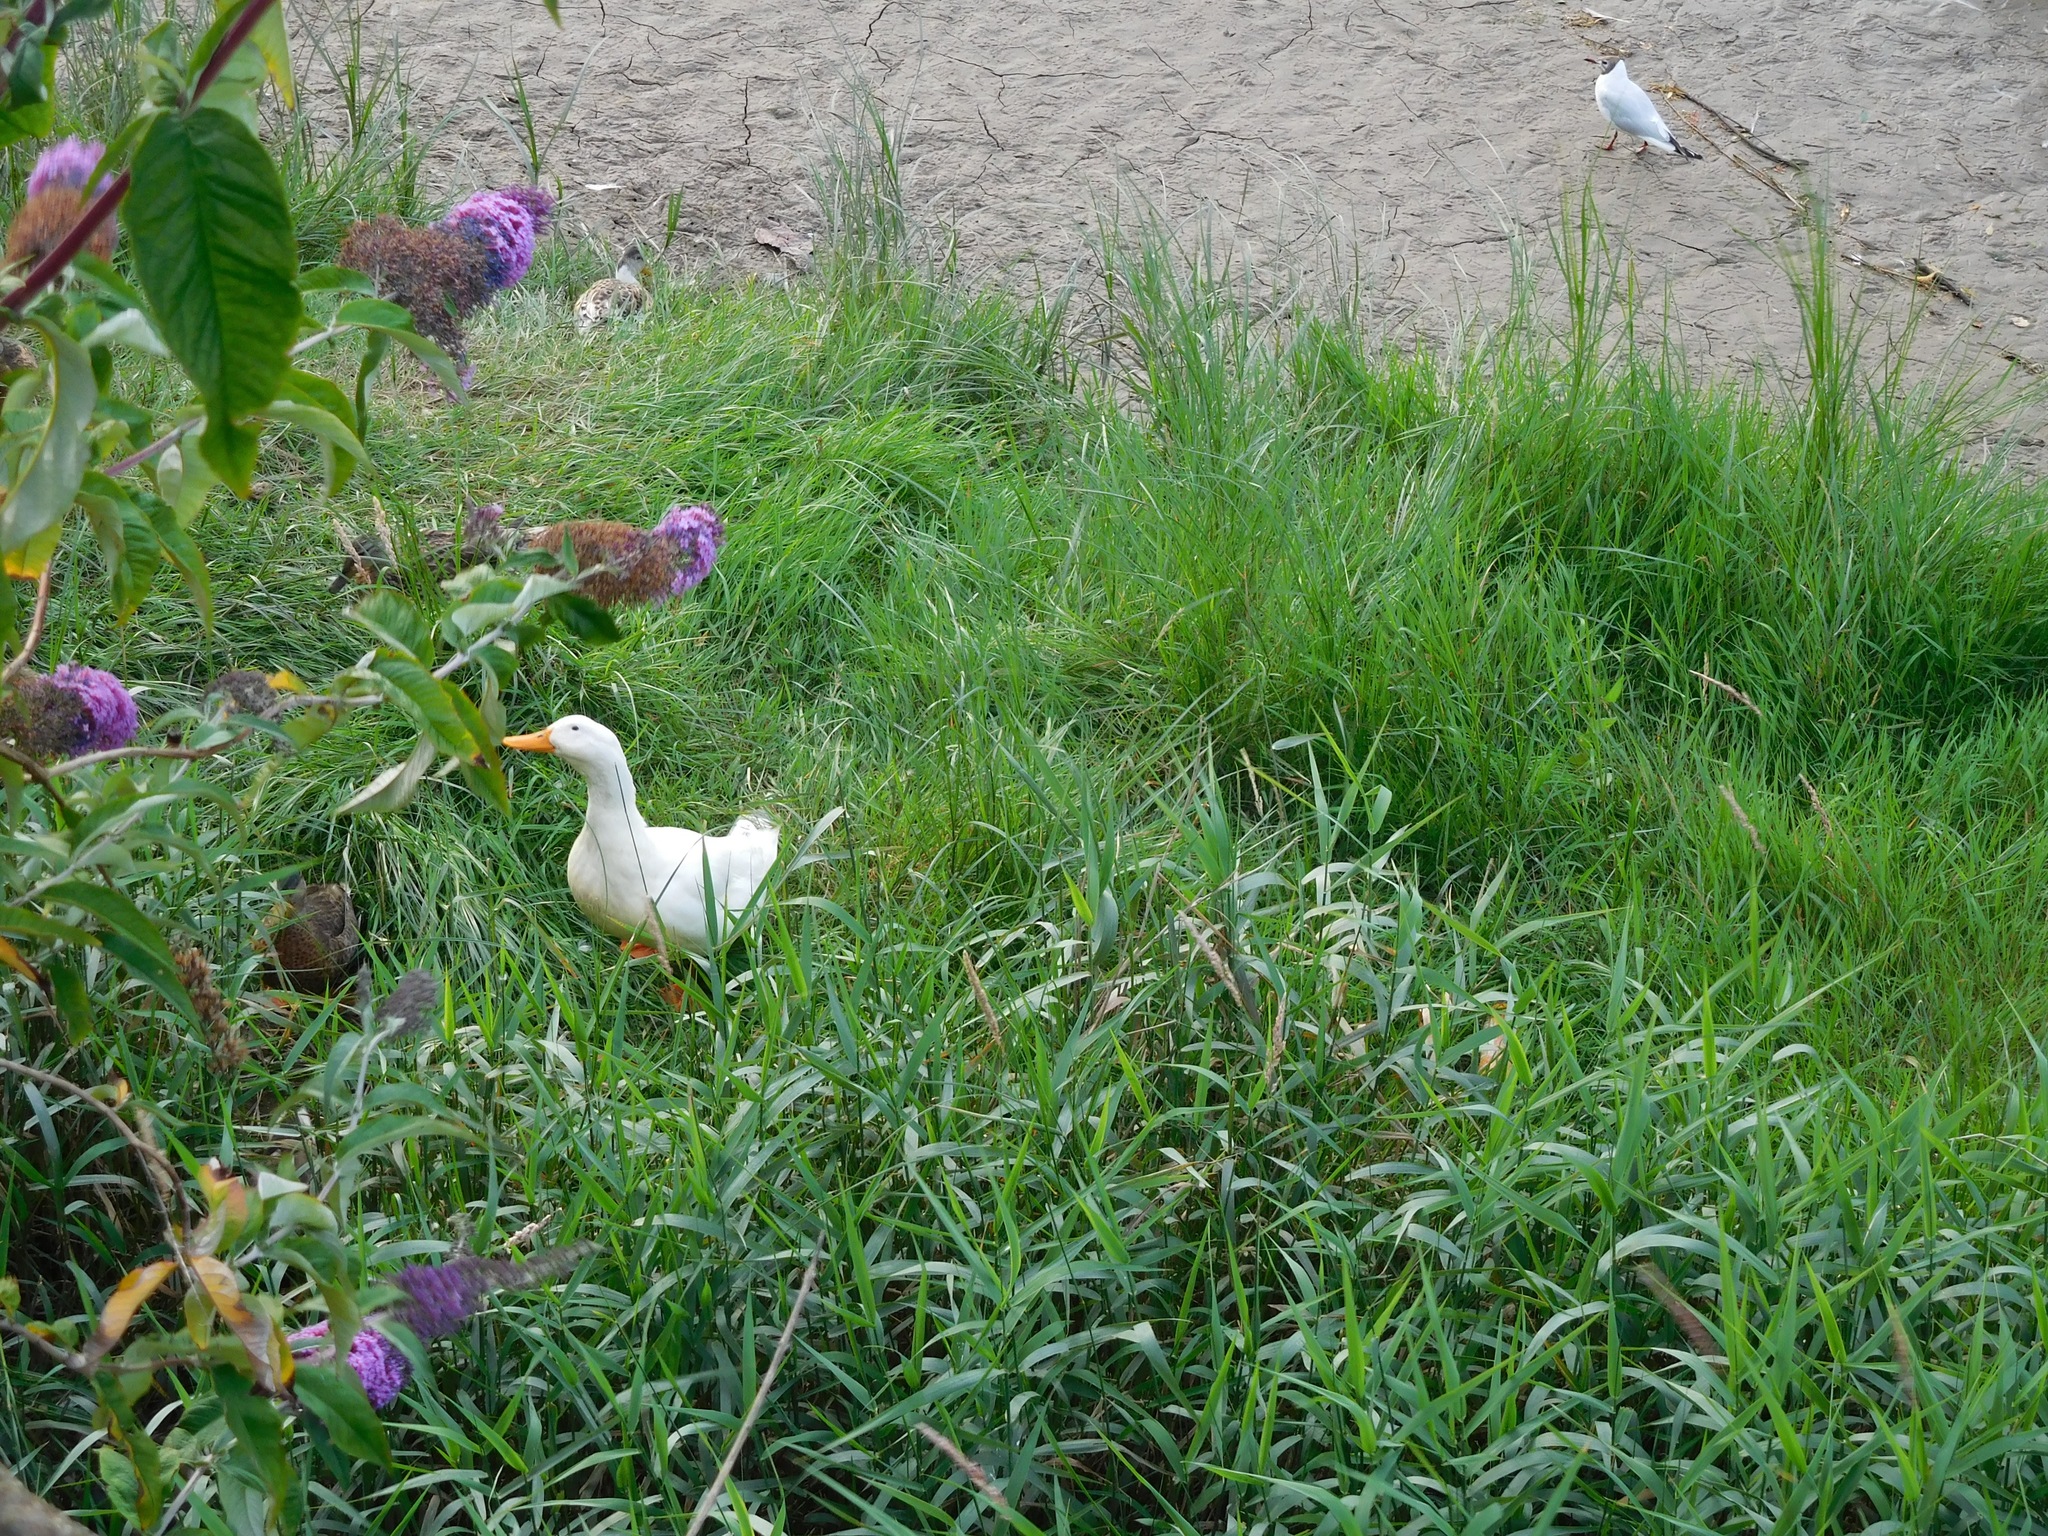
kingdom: Animalia
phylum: Chordata
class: Aves
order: Anseriformes
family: Anatidae
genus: Anas
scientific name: Anas platyrhynchos
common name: Mallard
